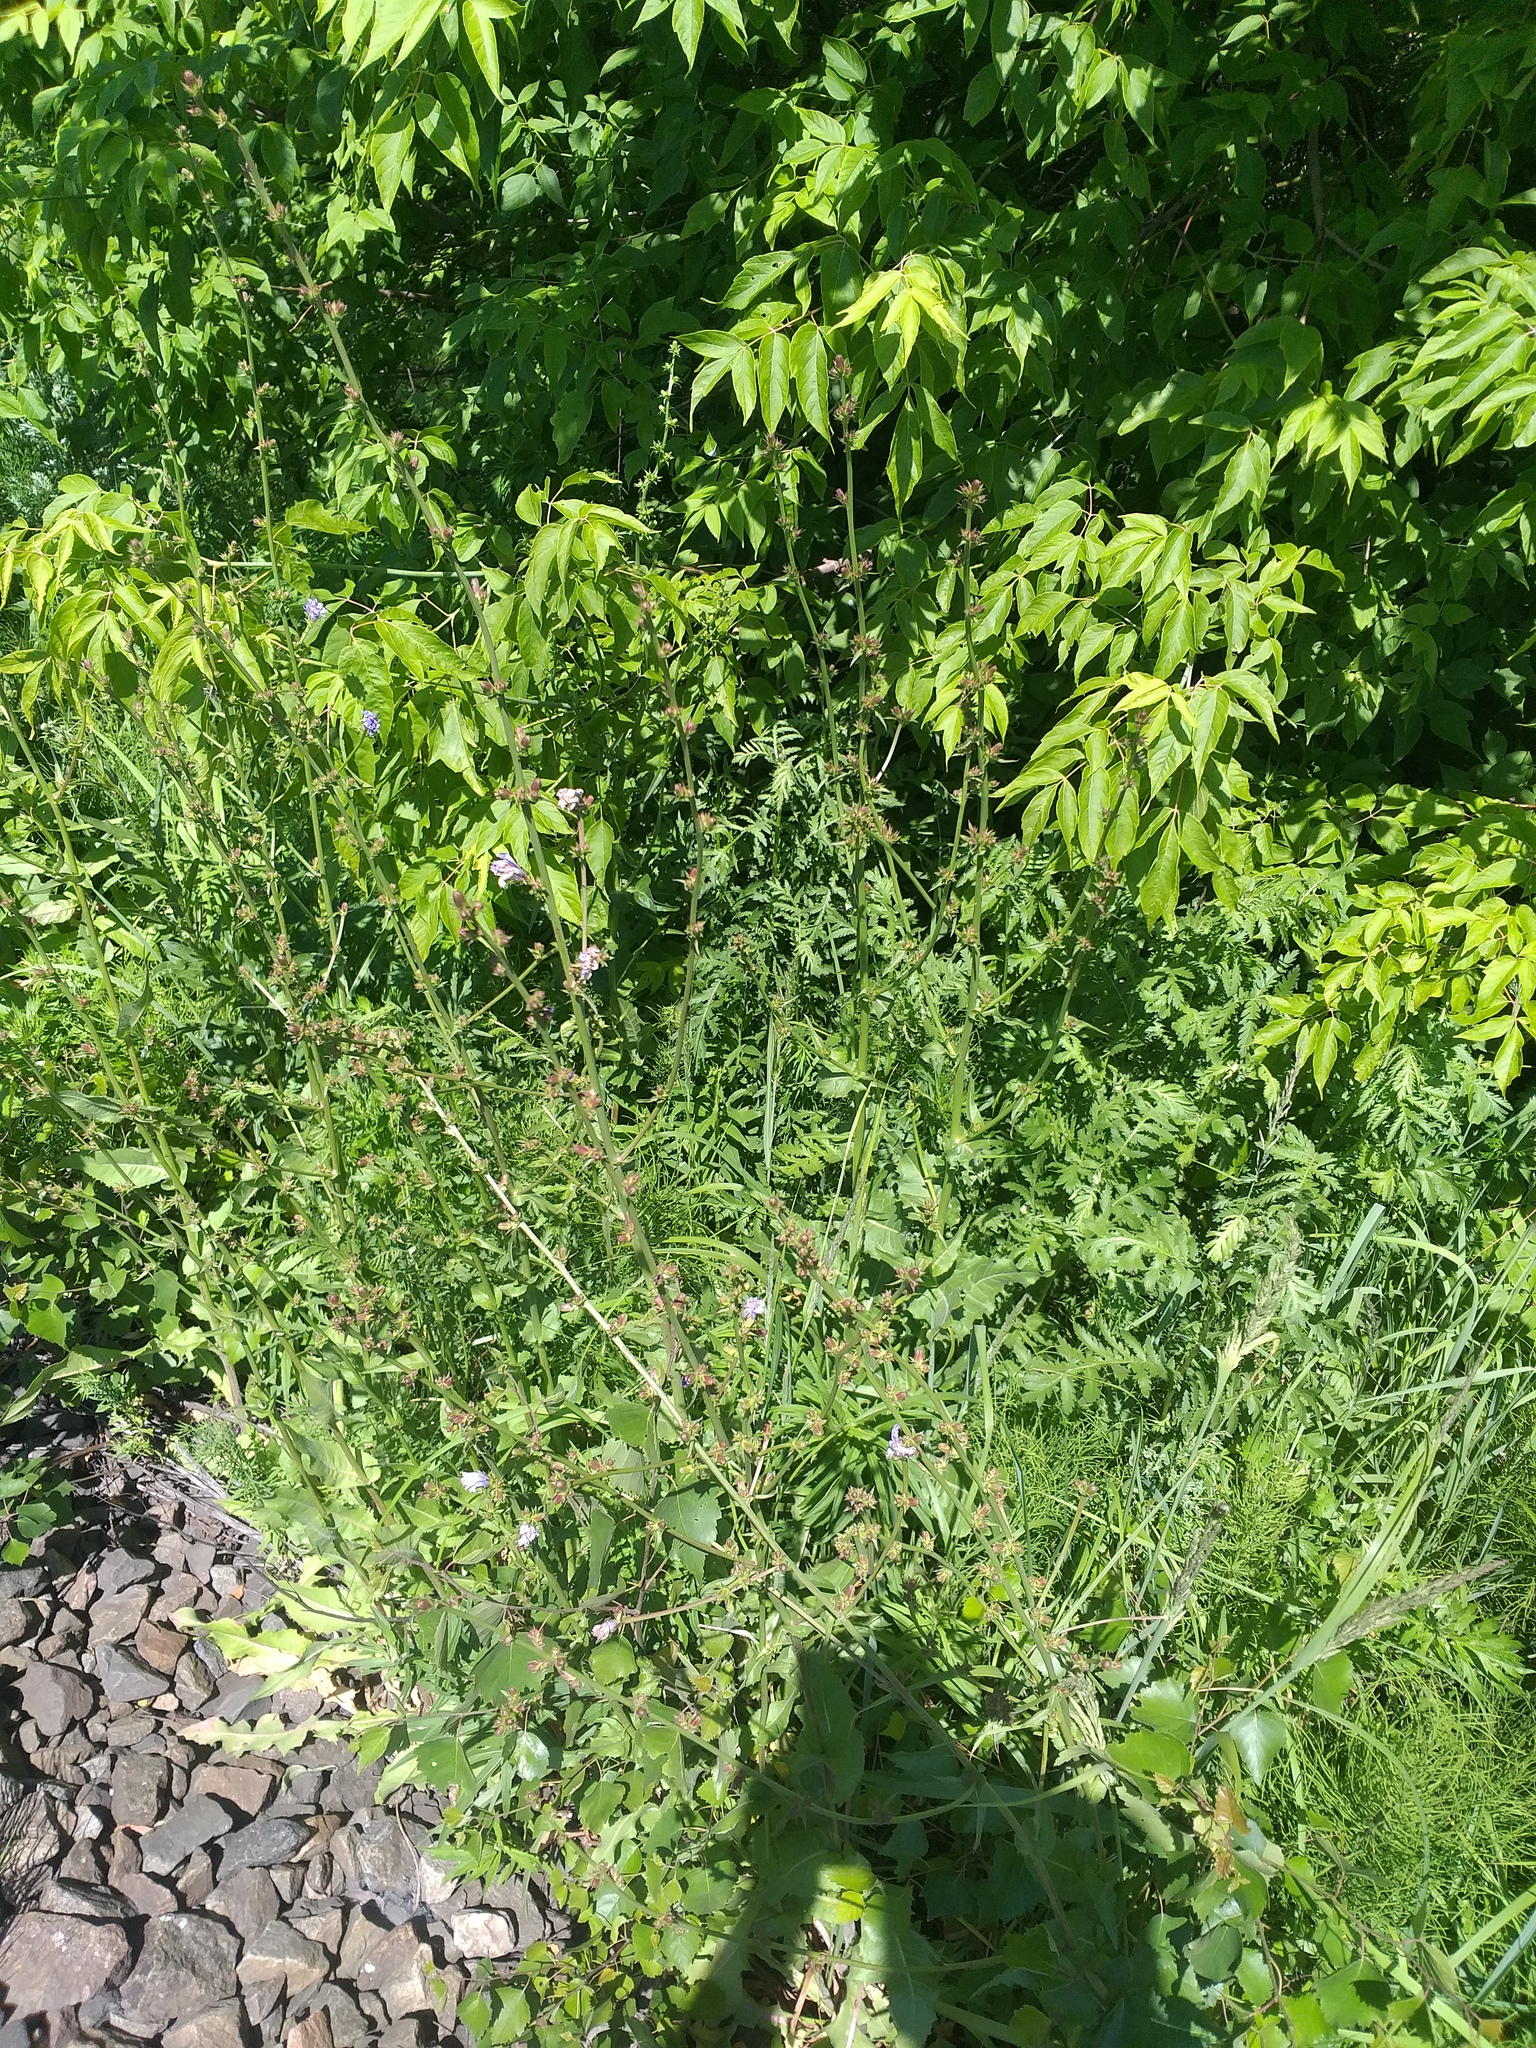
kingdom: Plantae
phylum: Tracheophyta
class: Magnoliopsida
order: Asterales
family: Asteraceae
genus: Cichorium
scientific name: Cichorium intybus
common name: Chicory
